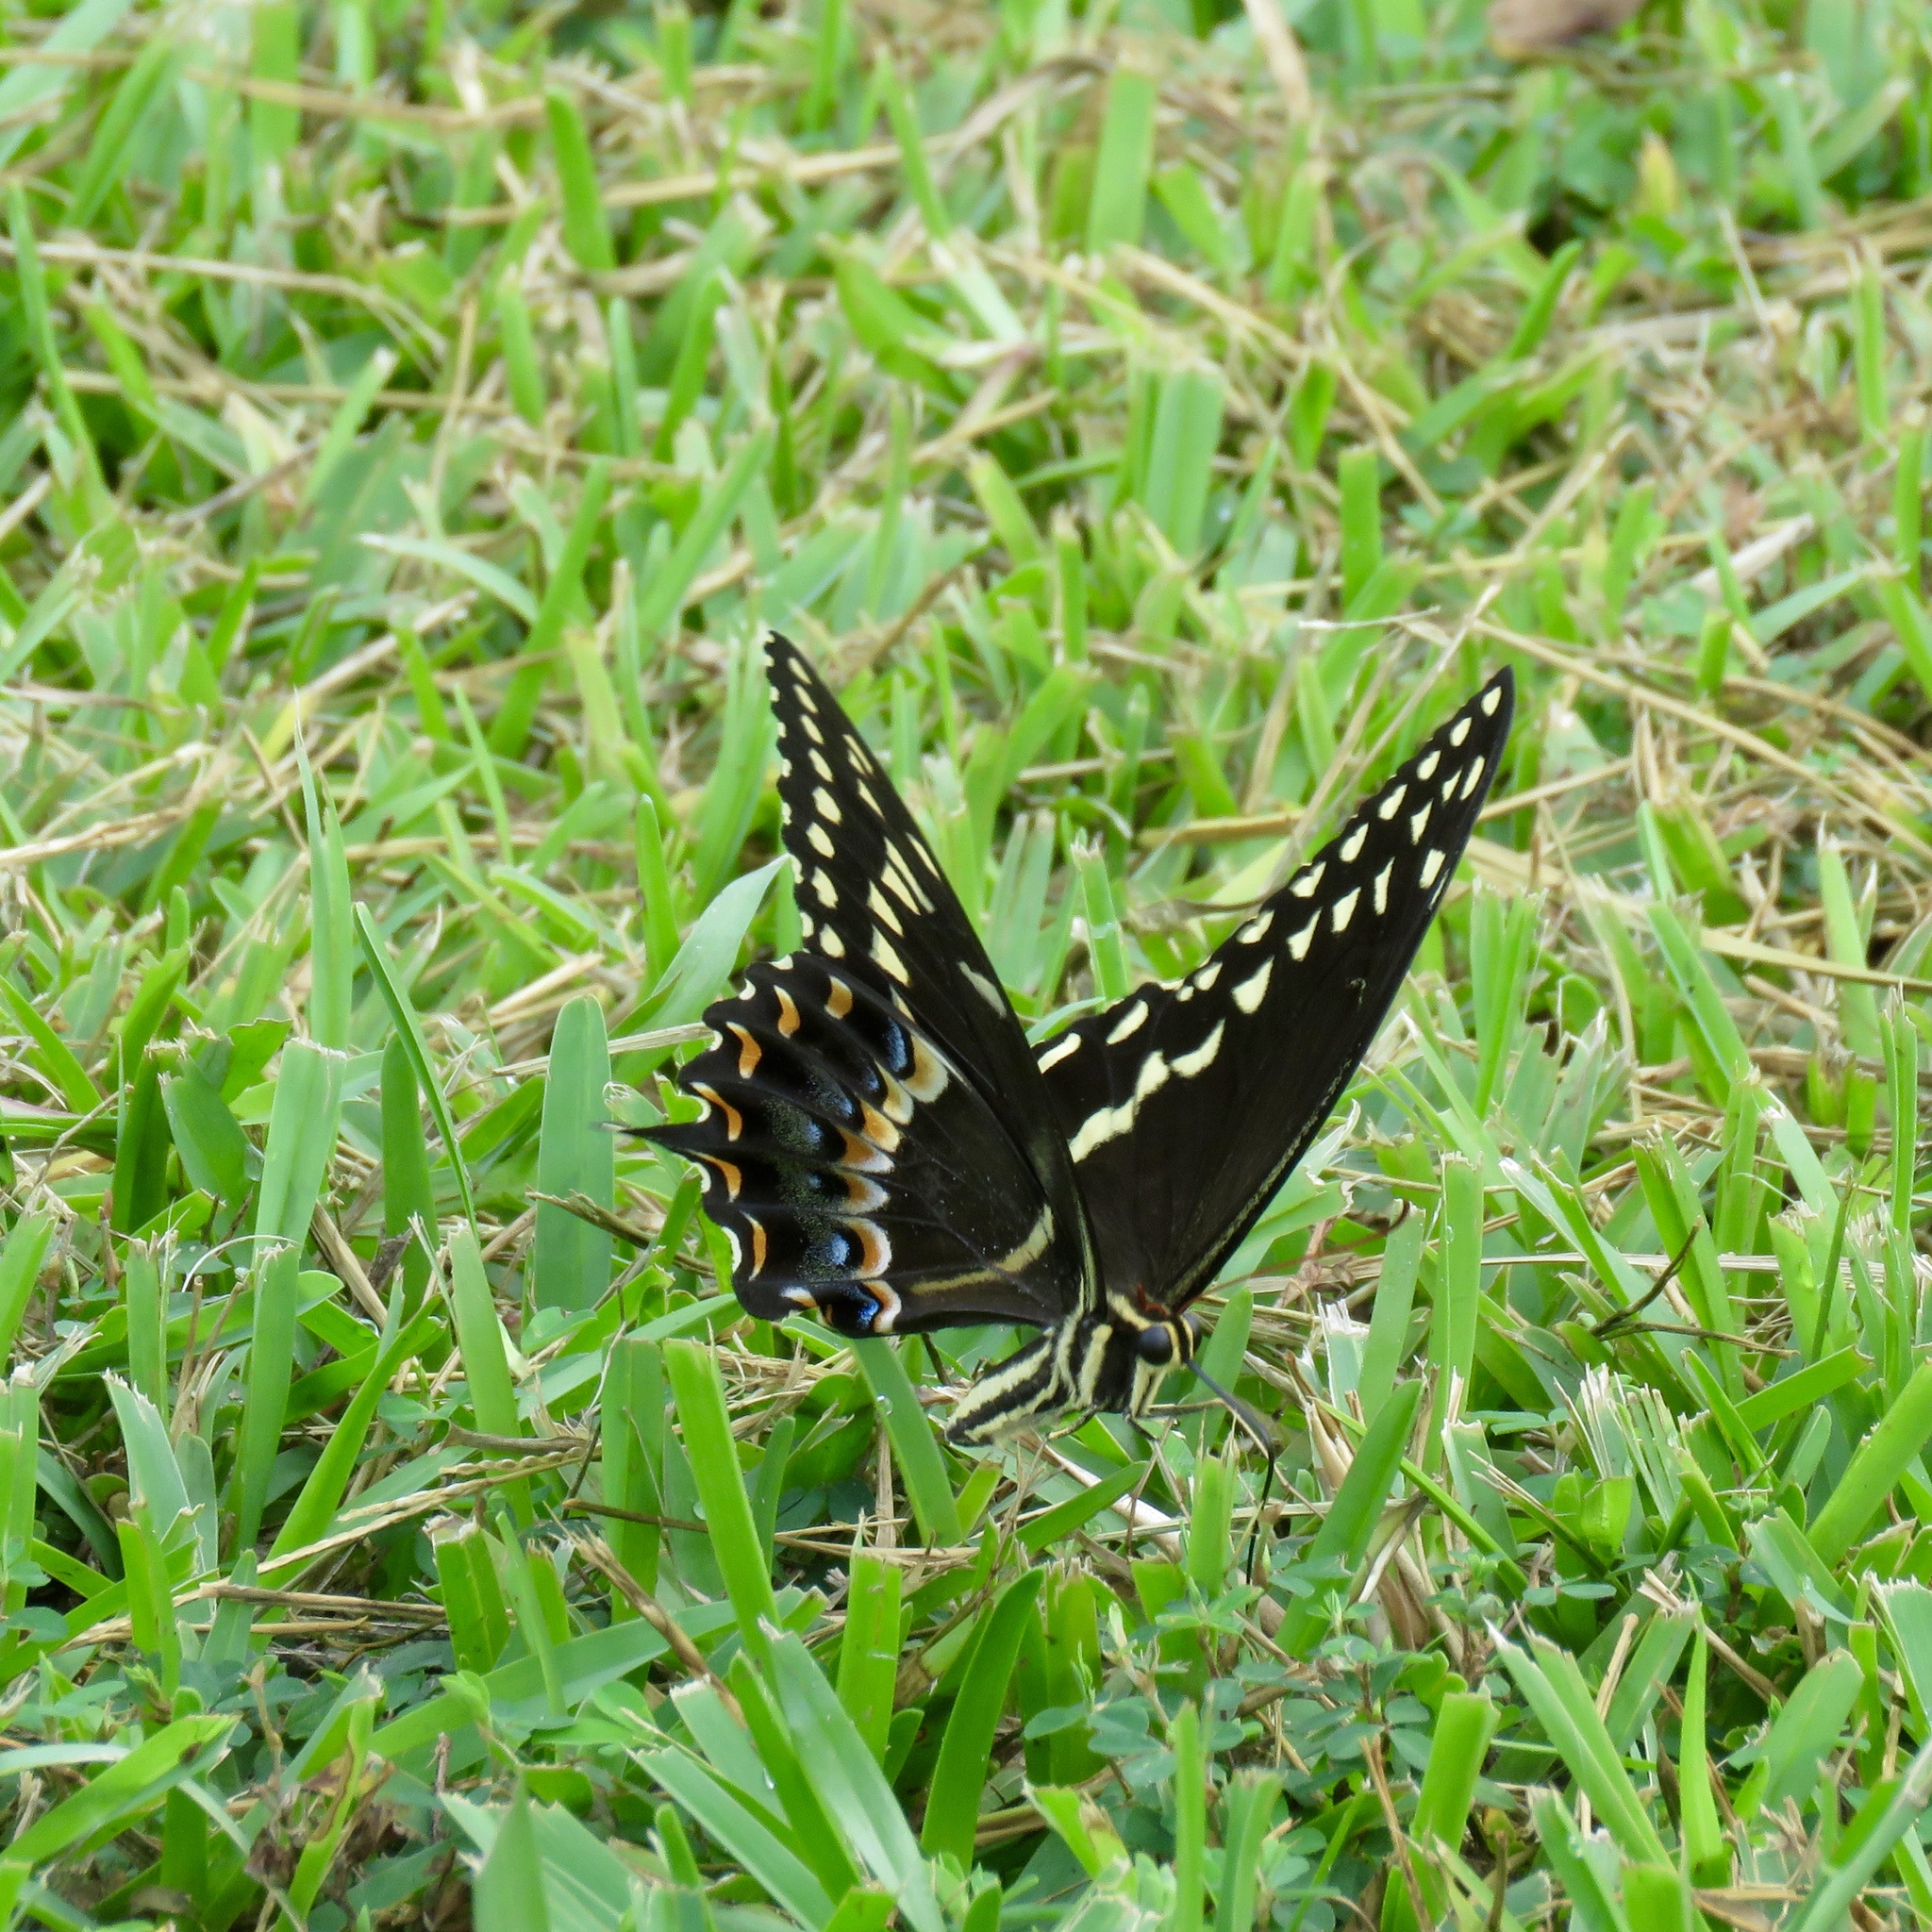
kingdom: Animalia
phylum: Arthropoda
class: Insecta
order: Lepidoptera
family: Papilionidae
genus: Papilio
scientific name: Papilio palamedes
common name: Palamedes swallowtail
